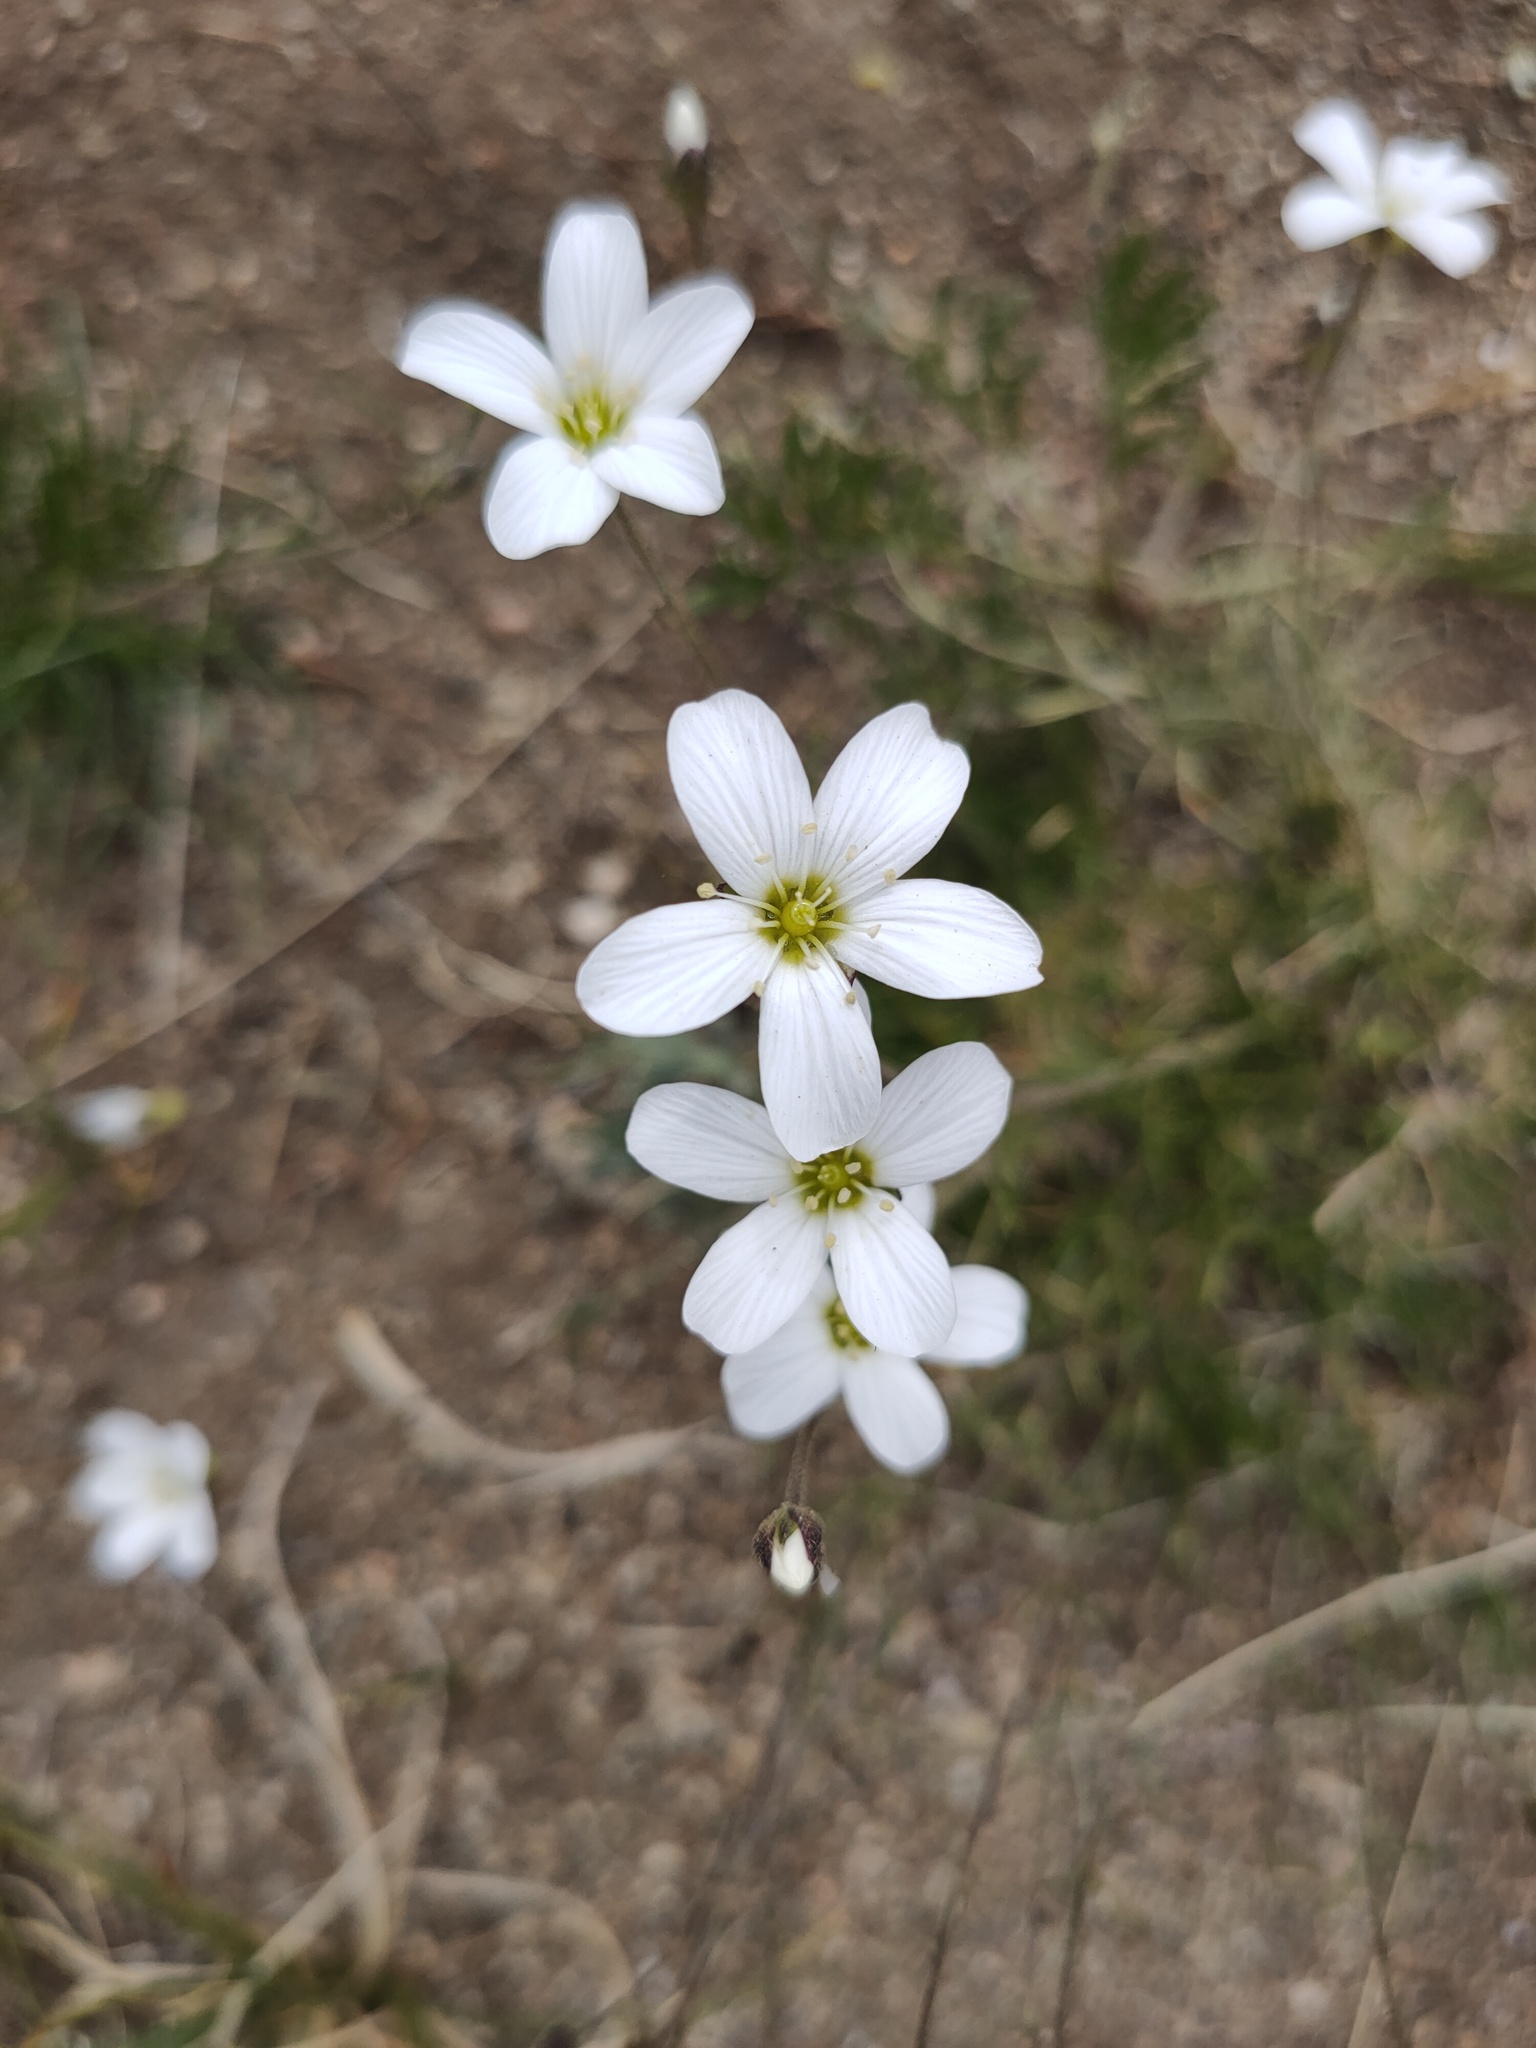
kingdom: Plantae
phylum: Tracheophyta
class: Magnoliopsida
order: Caryophyllales
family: Caryophyllaceae
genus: Eremogone
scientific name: Eremogone meyeri
